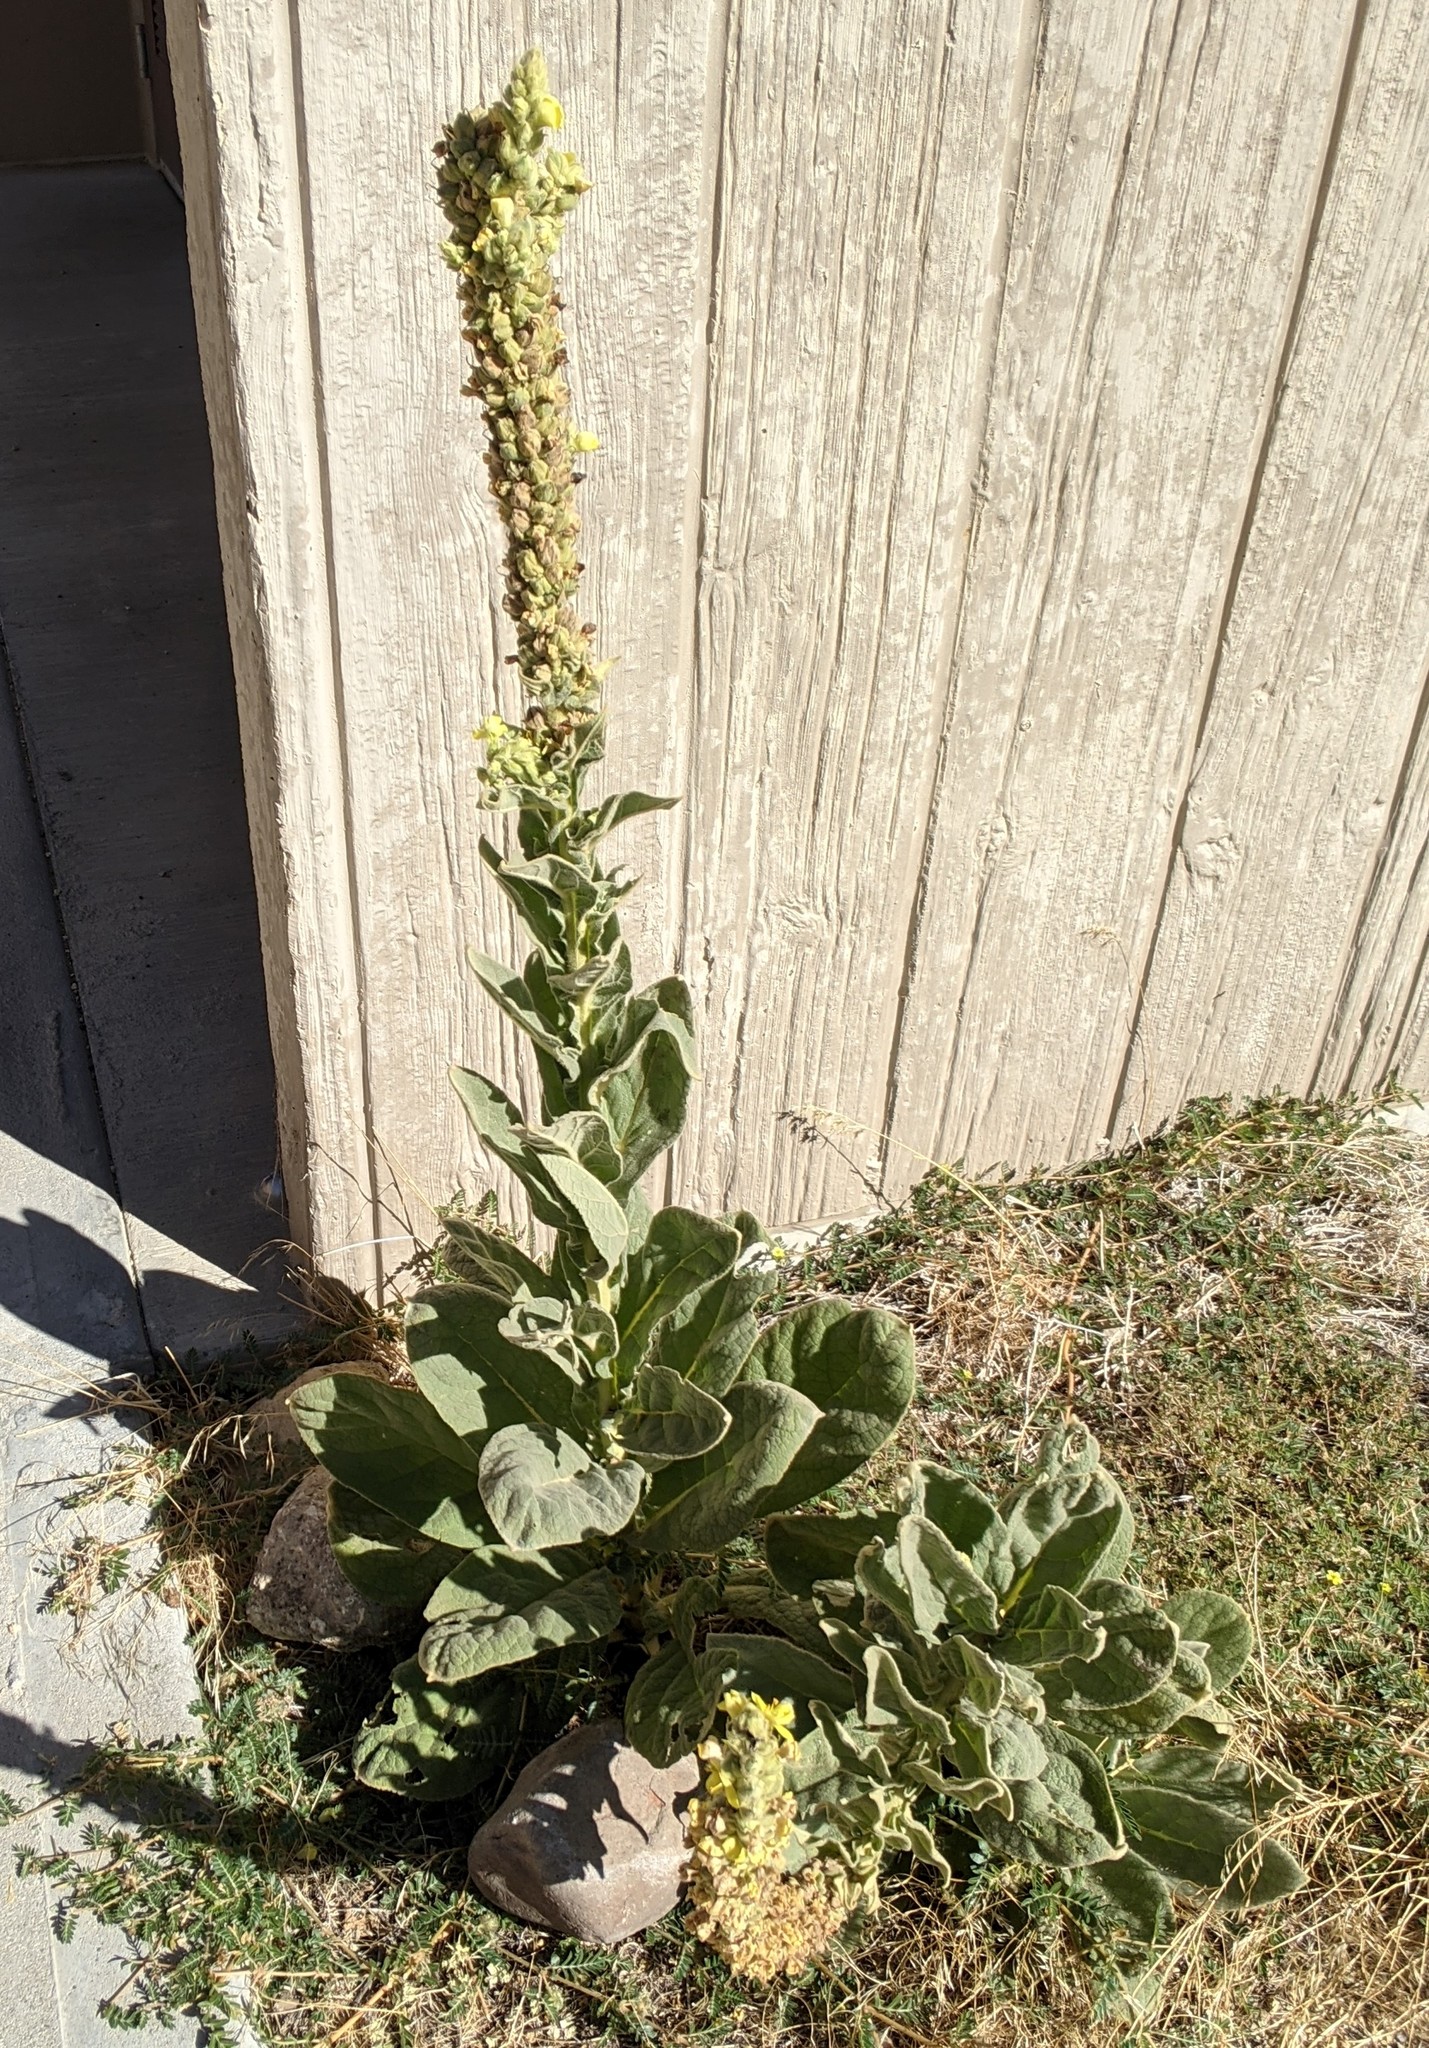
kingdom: Plantae
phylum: Tracheophyta
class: Magnoliopsida
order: Lamiales
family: Scrophulariaceae
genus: Verbascum
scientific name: Verbascum thapsus
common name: Common mullein
